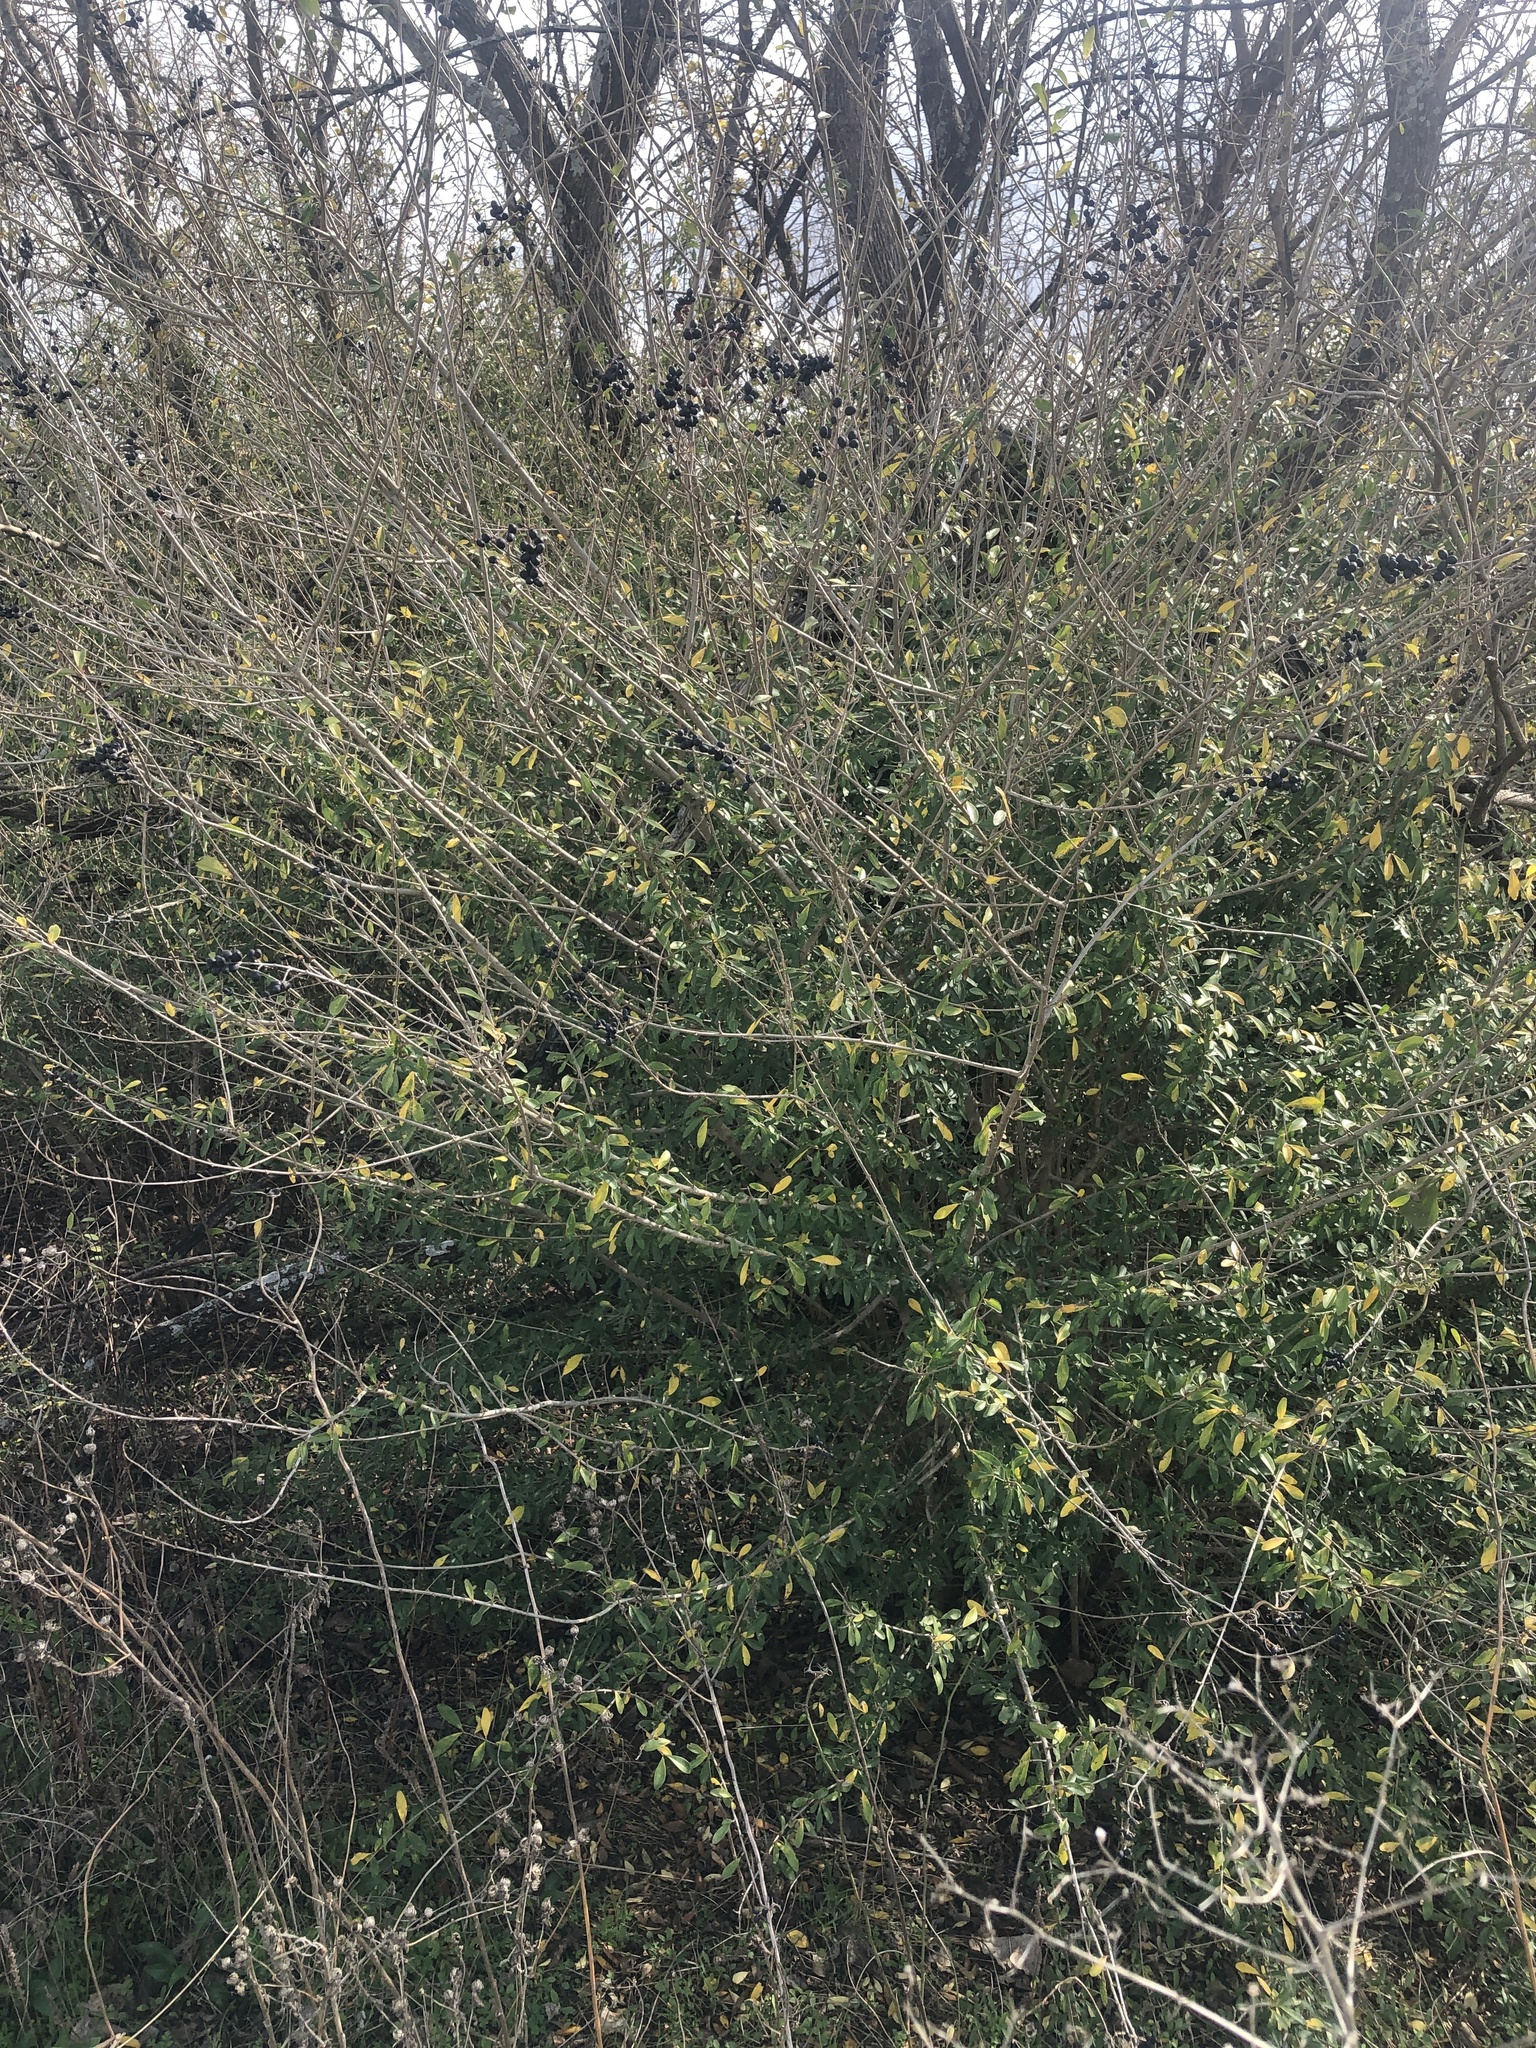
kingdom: Plantae
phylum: Tracheophyta
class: Magnoliopsida
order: Lamiales
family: Oleaceae
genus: Ligustrum
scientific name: Ligustrum quihoui
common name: Waxyleaf privet
